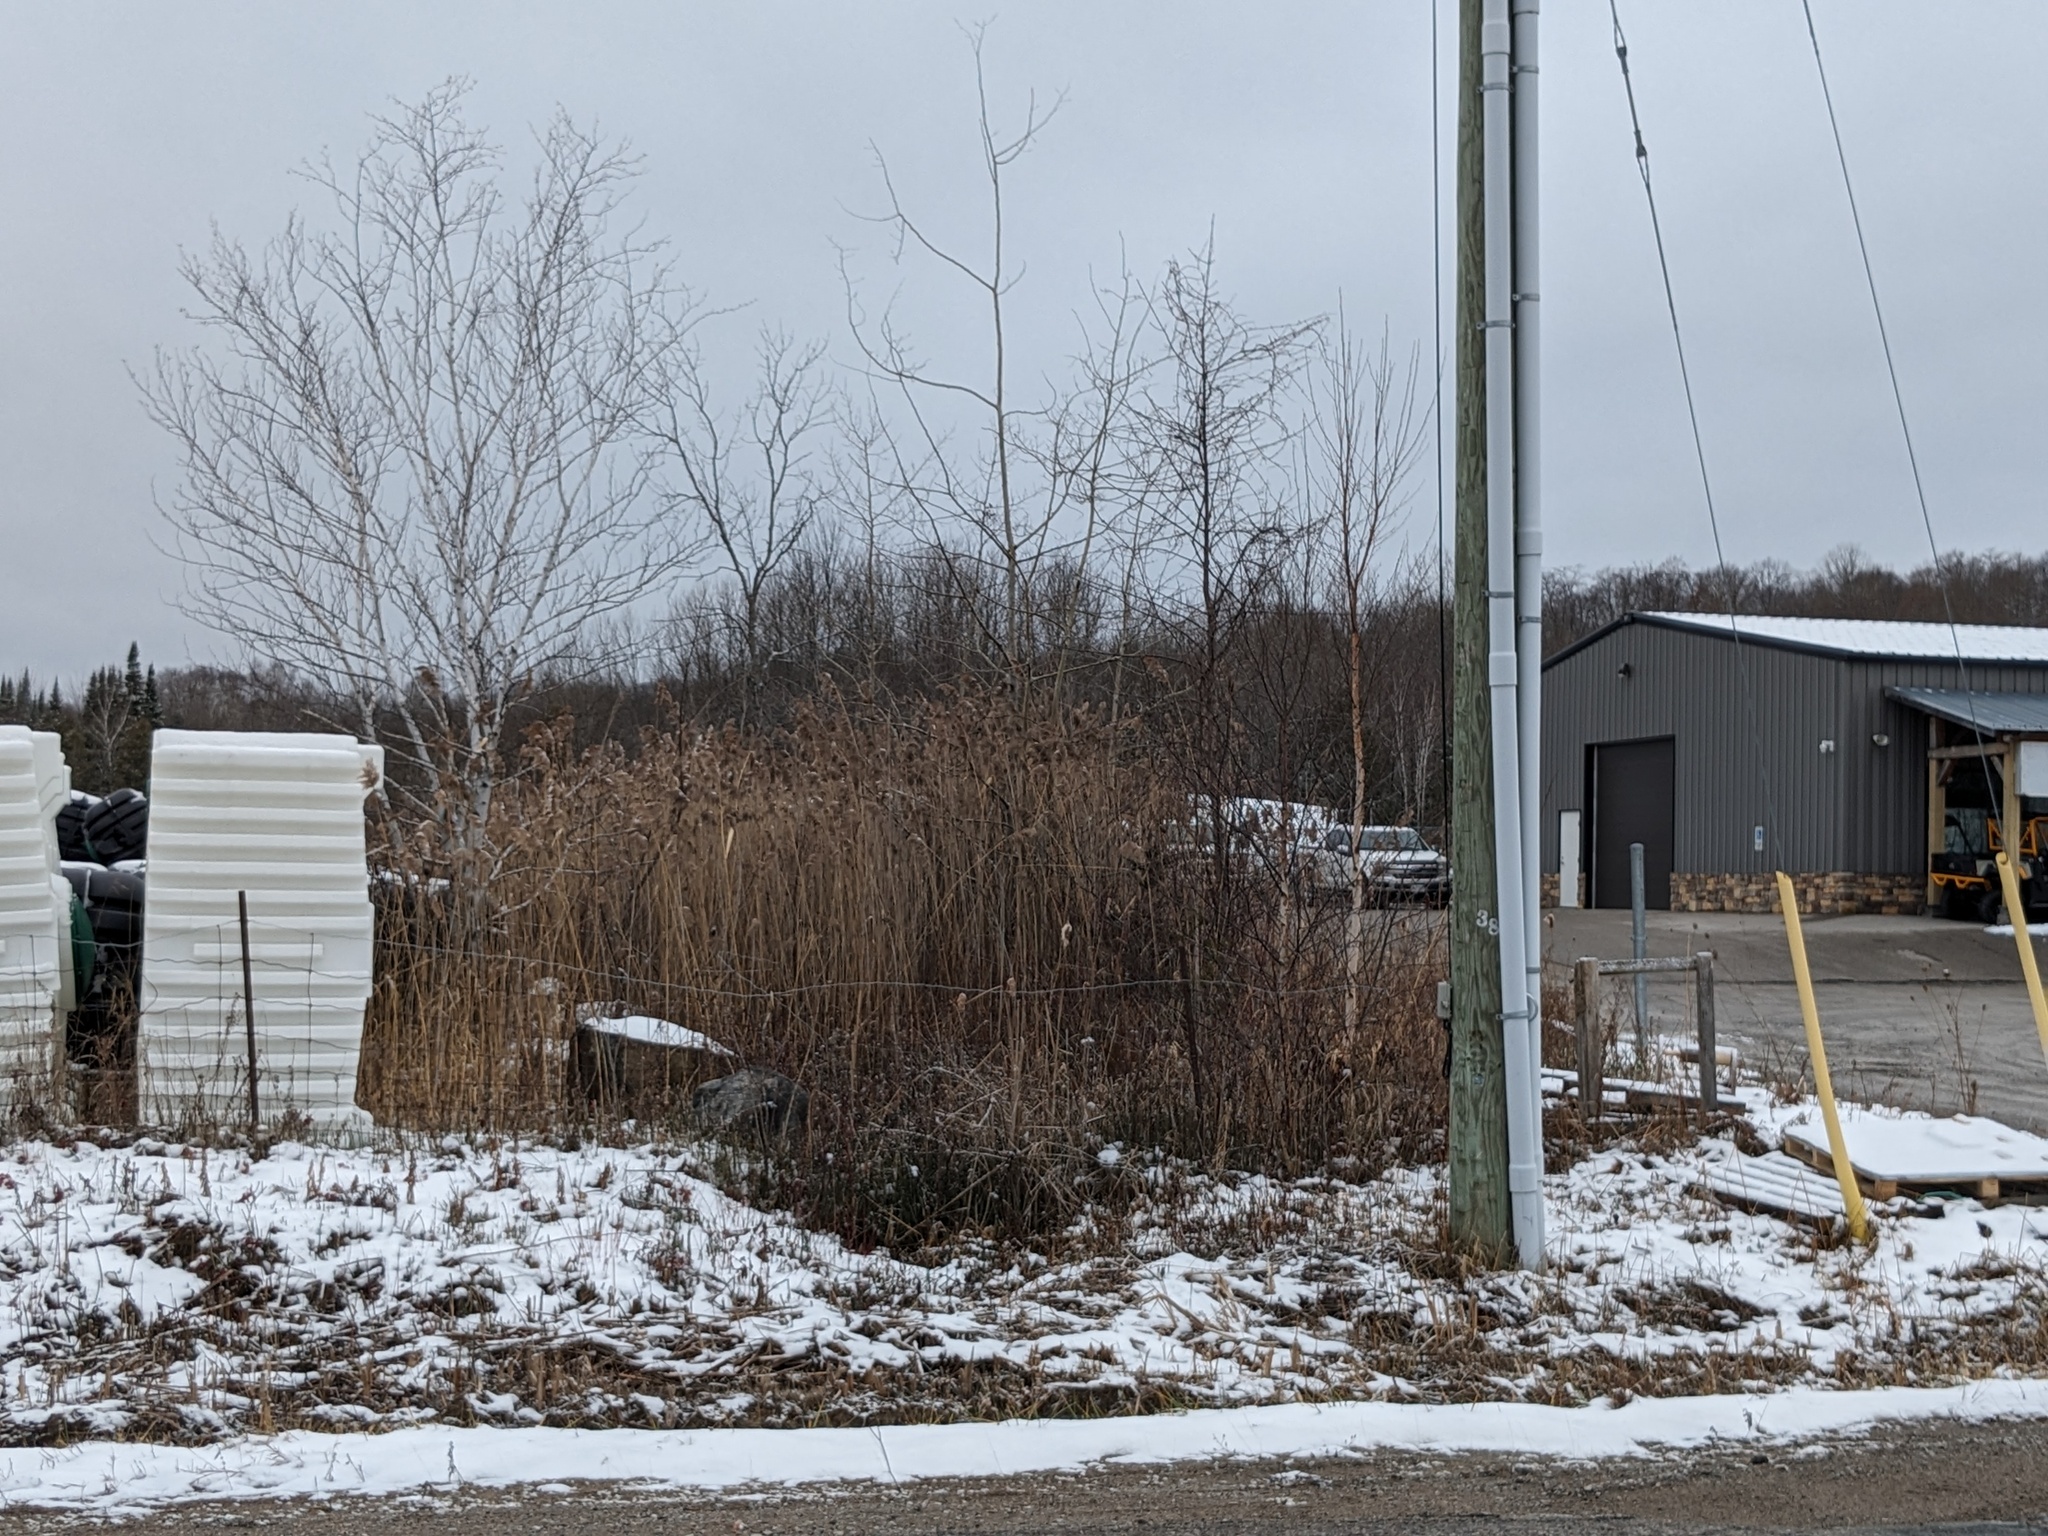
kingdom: Plantae
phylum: Tracheophyta
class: Liliopsida
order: Poales
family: Poaceae
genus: Phragmites
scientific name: Phragmites australis
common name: Common reed
